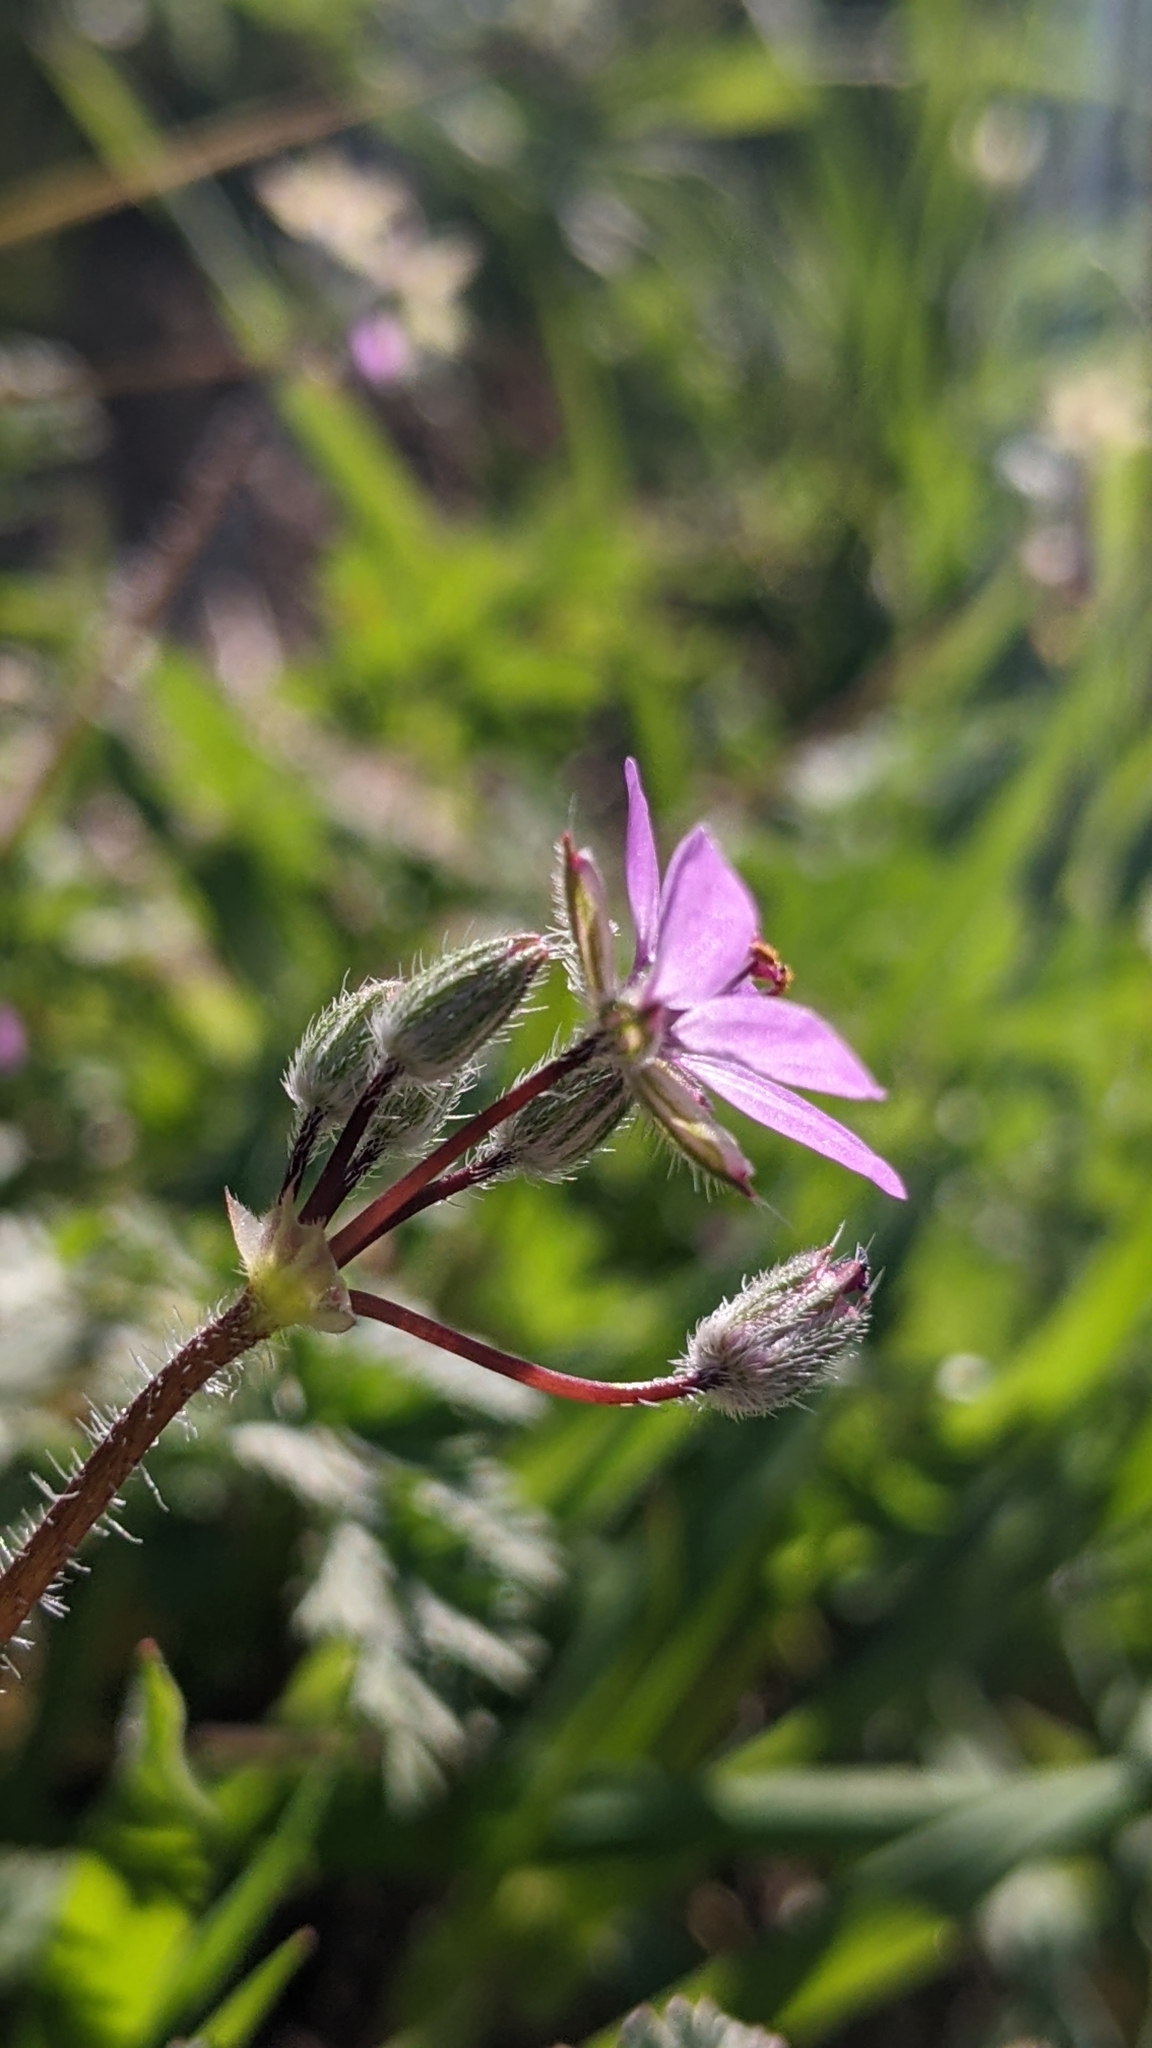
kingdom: Plantae
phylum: Tracheophyta
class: Magnoliopsida
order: Geraniales
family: Geraniaceae
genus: Erodium
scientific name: Erodium cicutarium
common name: Common stork's-bill
